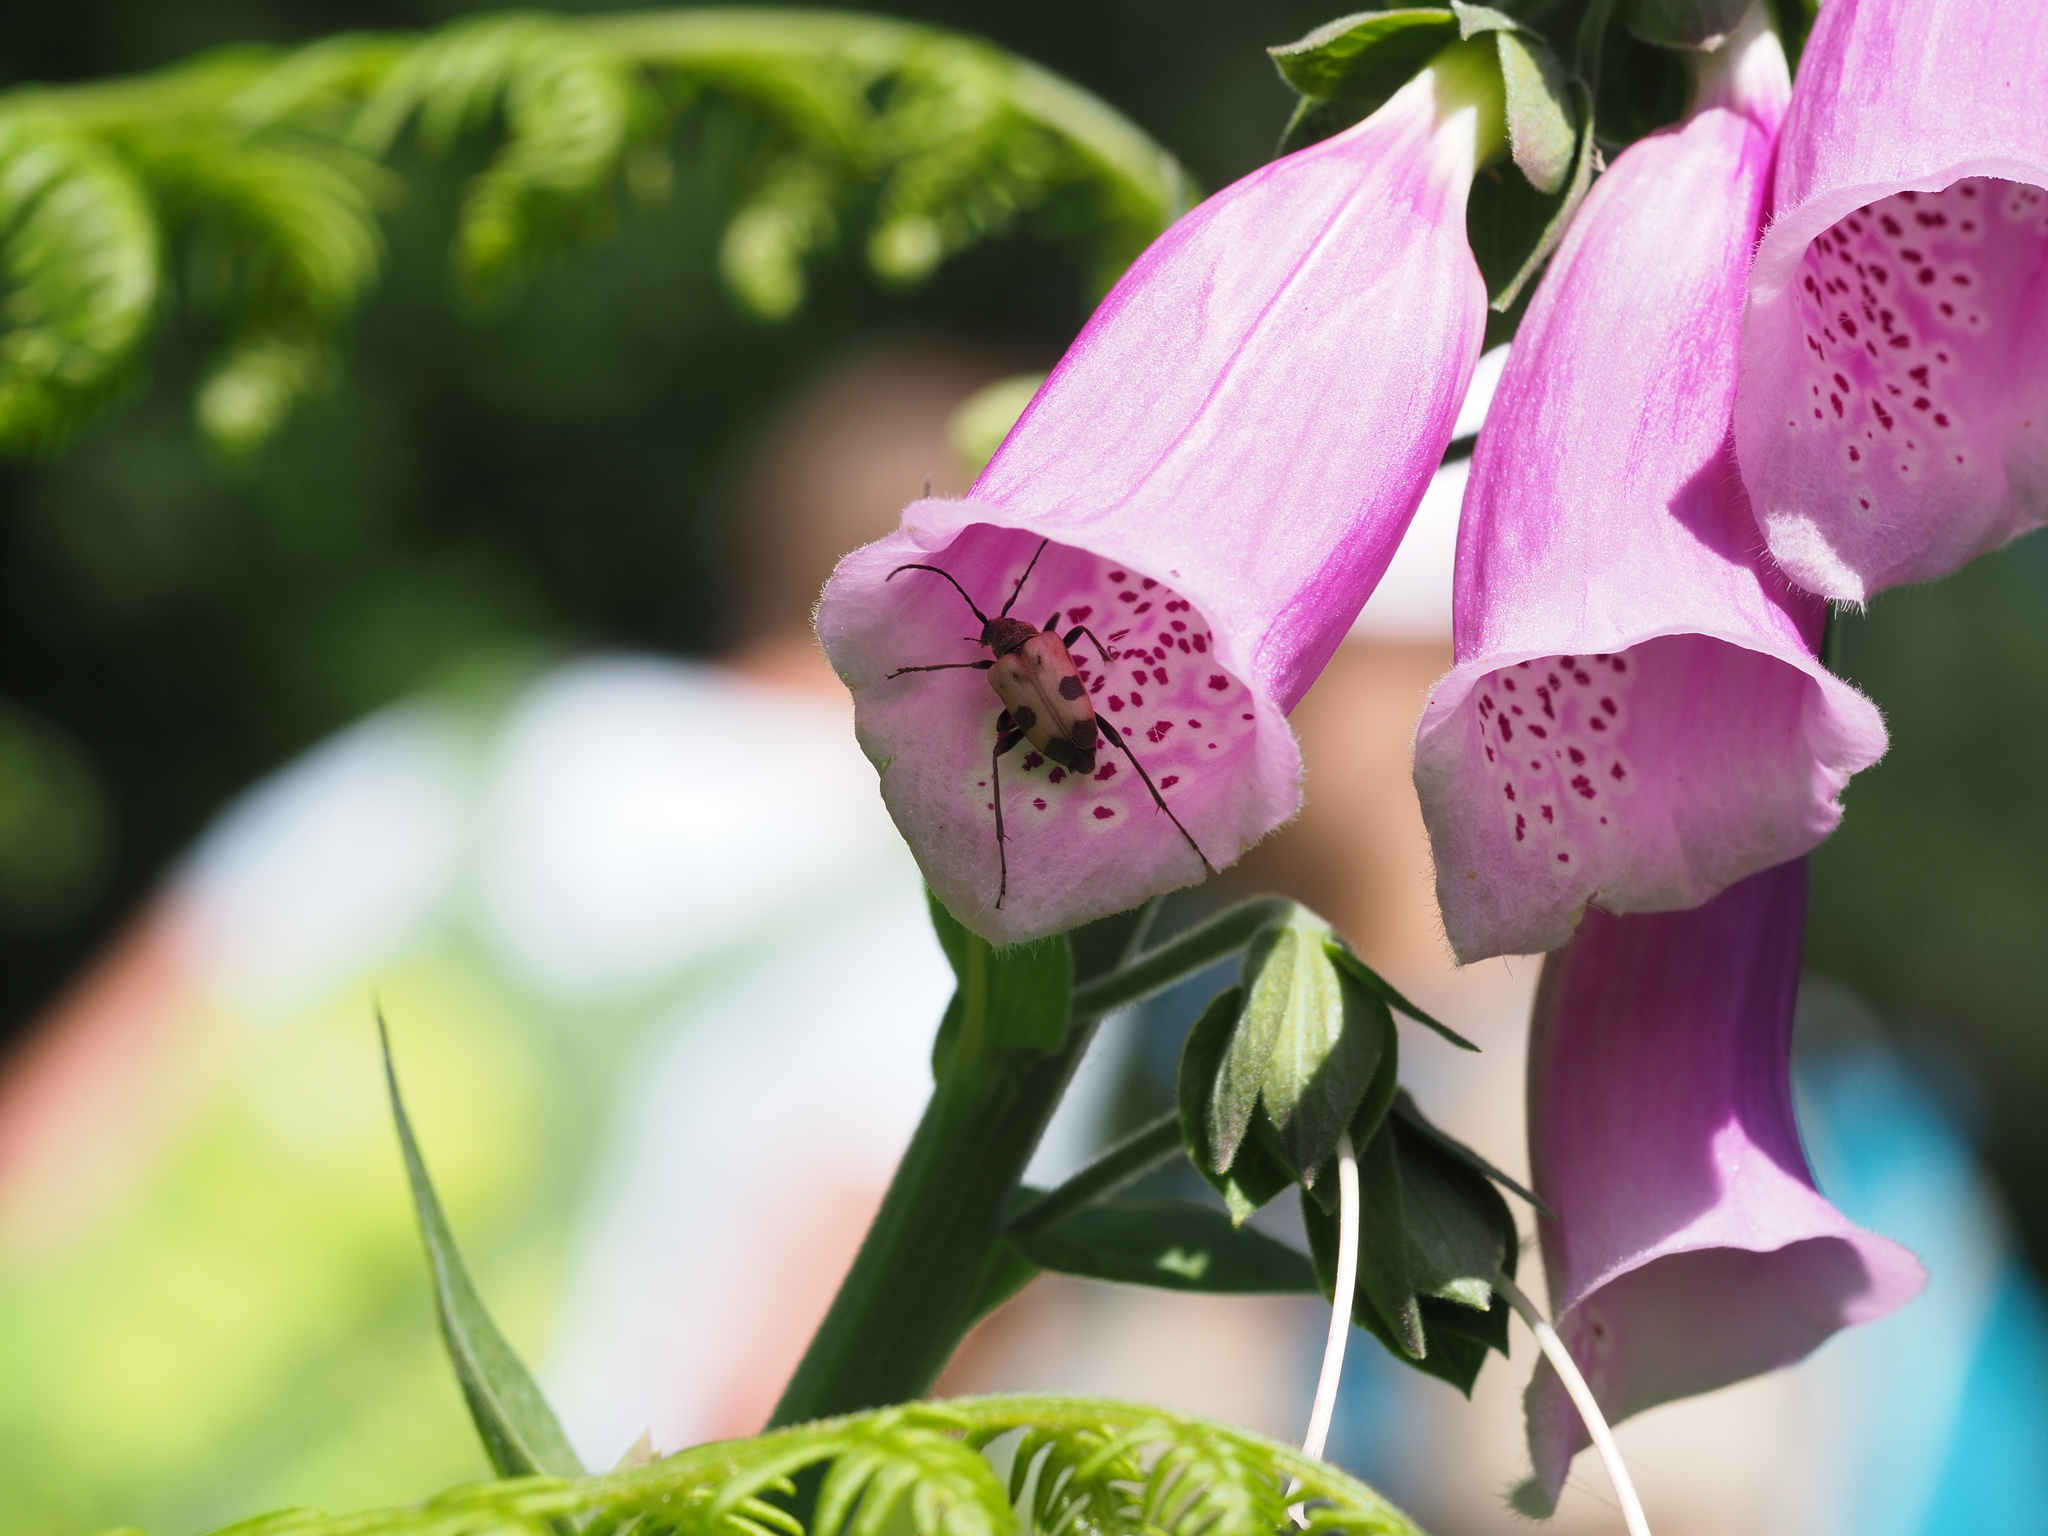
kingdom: Animalia
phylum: Arthropoda
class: Insecta
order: Coleoptera
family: Cerambycidae
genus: Pachytodes
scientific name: Pachytodes cerambyciformis
